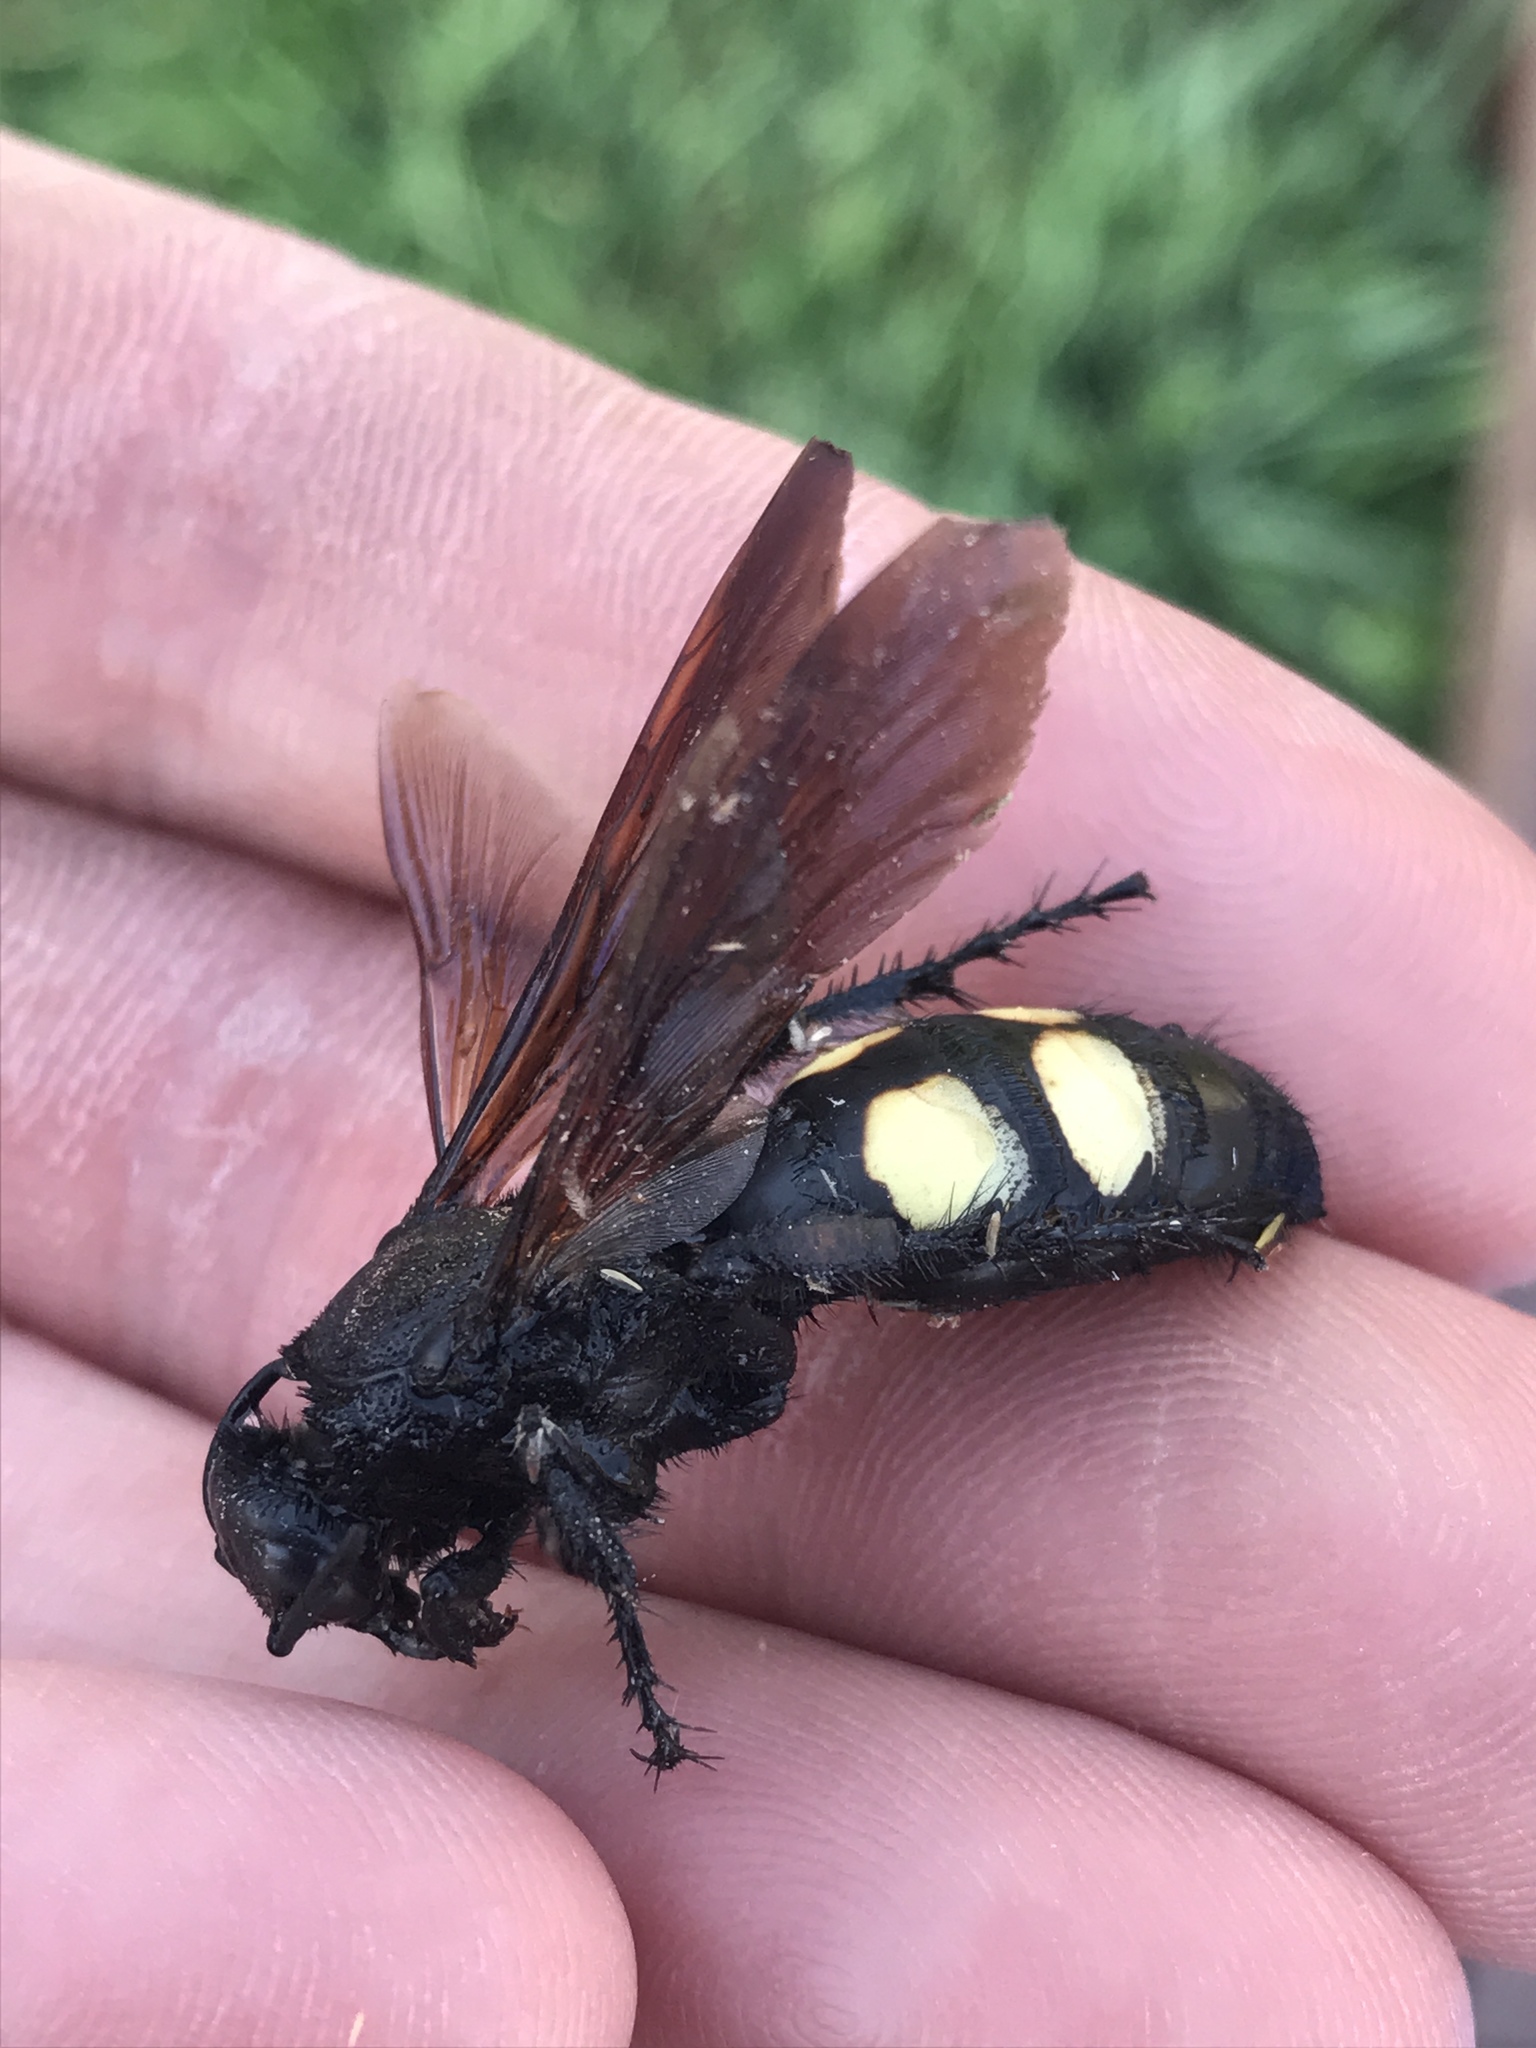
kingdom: Animalia
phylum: Arthropoda
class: Insecta
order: Hymenoptera
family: Scoliidae
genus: Scolia
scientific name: Scolia bicincta
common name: Double-banded scoliid wasp
